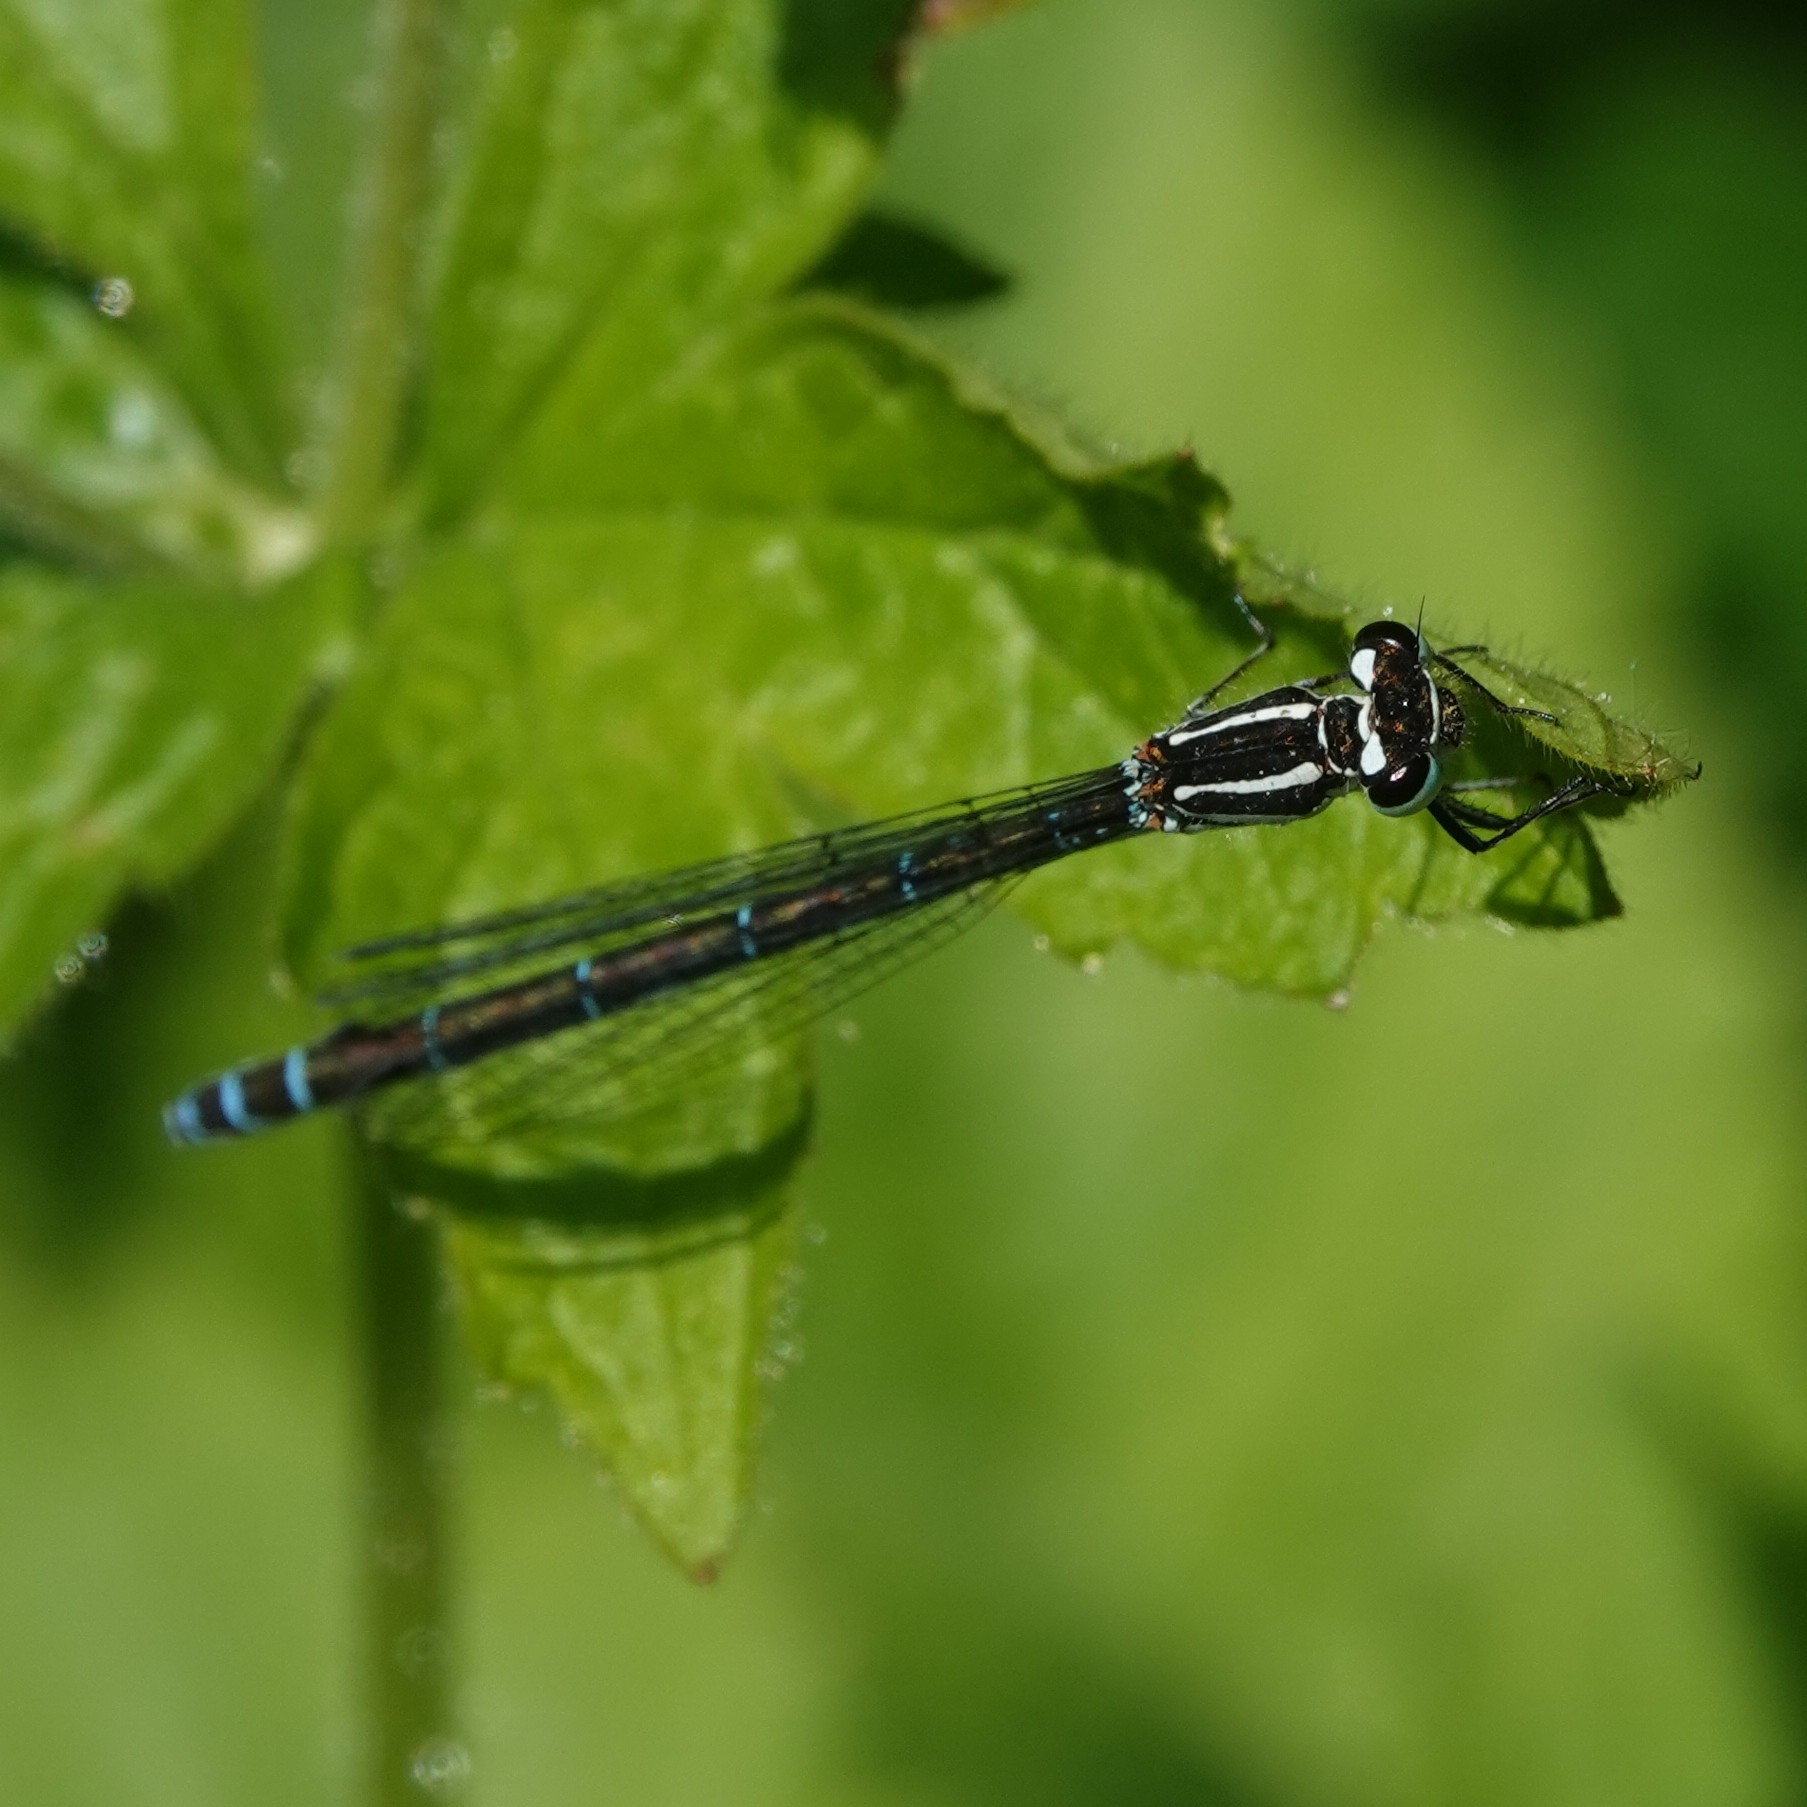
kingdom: Animalia
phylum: Arthropoda
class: Insecta
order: Odonata
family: Coenagrionidae
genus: Coenagrion
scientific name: Coenagrion puella
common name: Azure damselfly
